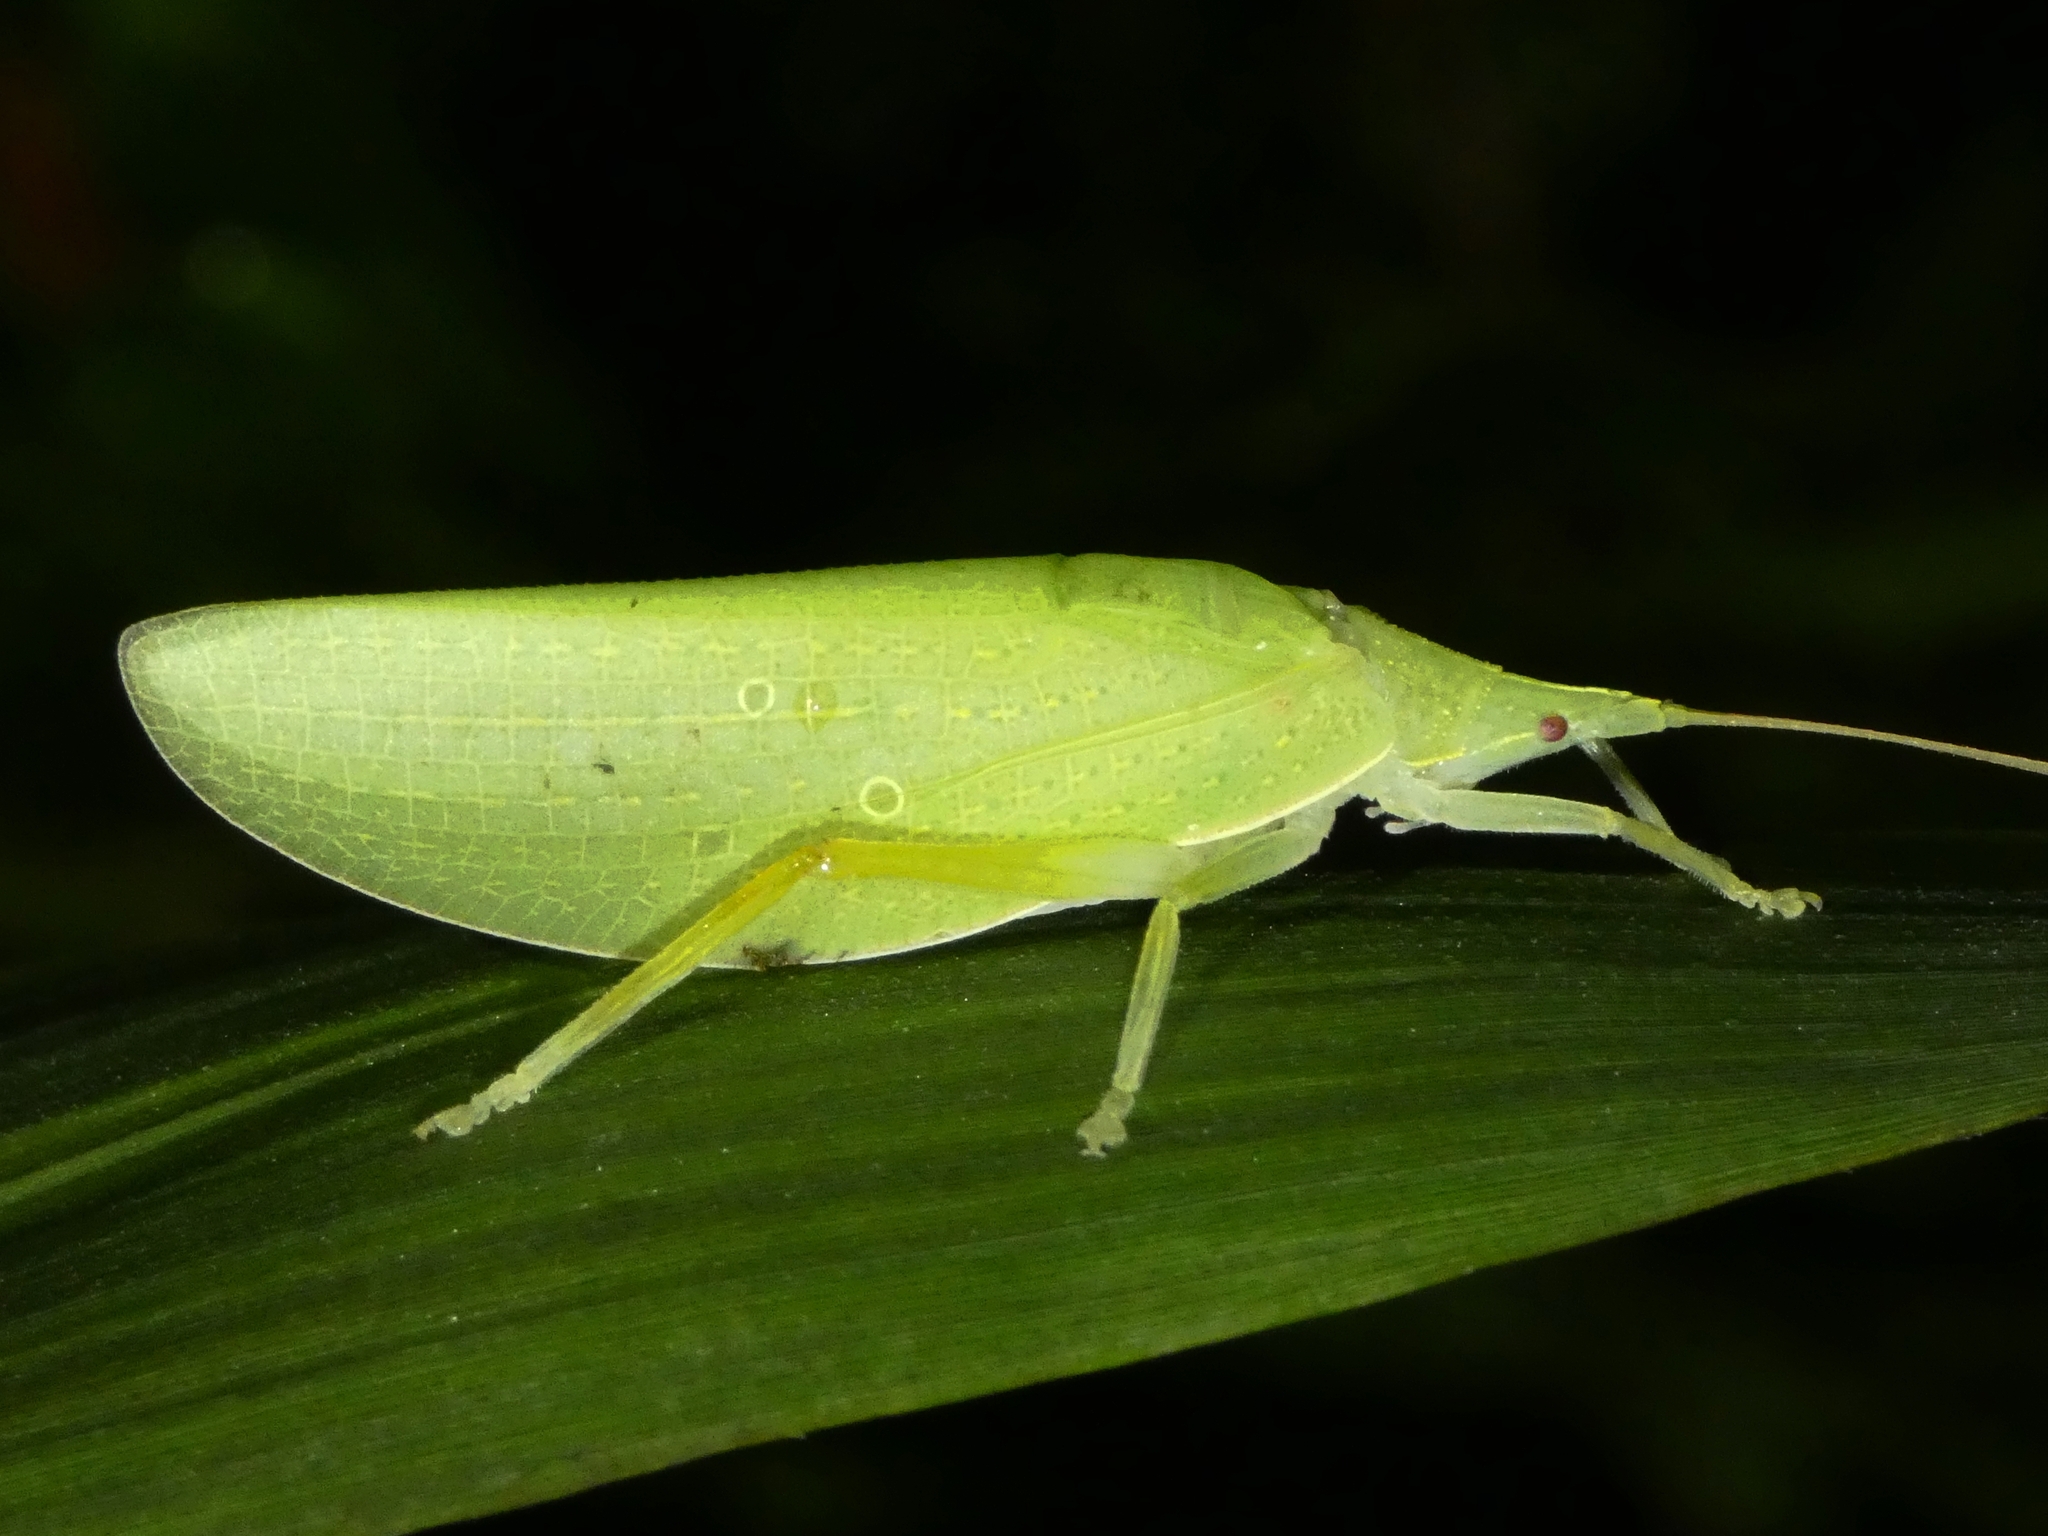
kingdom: Animalia
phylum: Arthropoda
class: Insecta
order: Orthoptera
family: Tettigoniidae
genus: Acauloplacella
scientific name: Acauloplacella queenslandica
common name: Chirping leaf mimic
